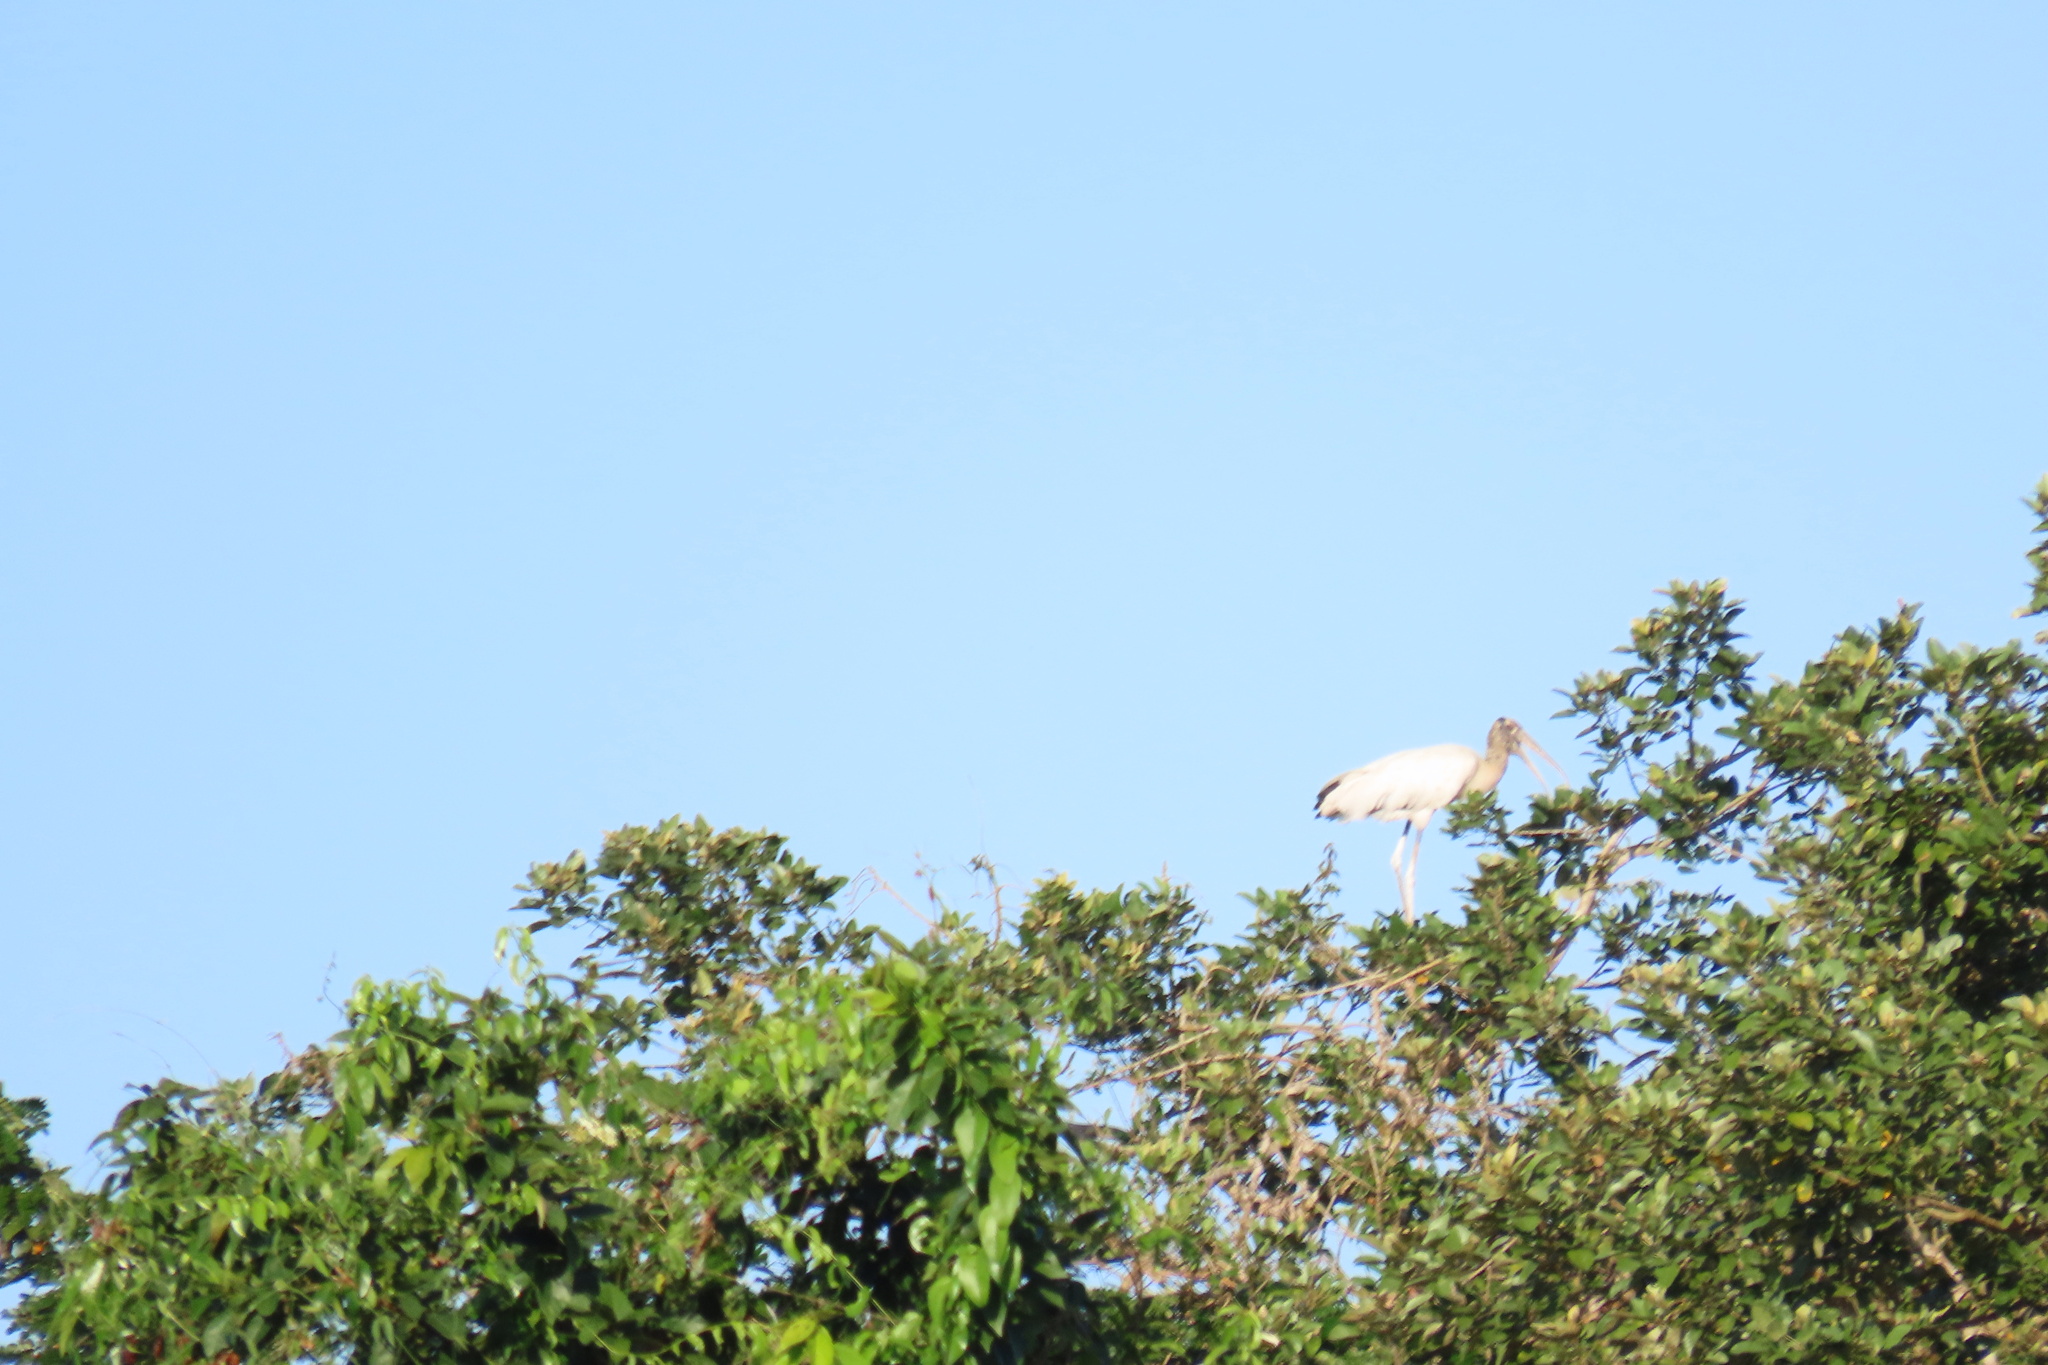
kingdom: Animalia
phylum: Chordata
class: Aves
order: Ciconiiformes
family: Ciconiidae
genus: Mycteria
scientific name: Mycteria americana
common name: Wood stork
